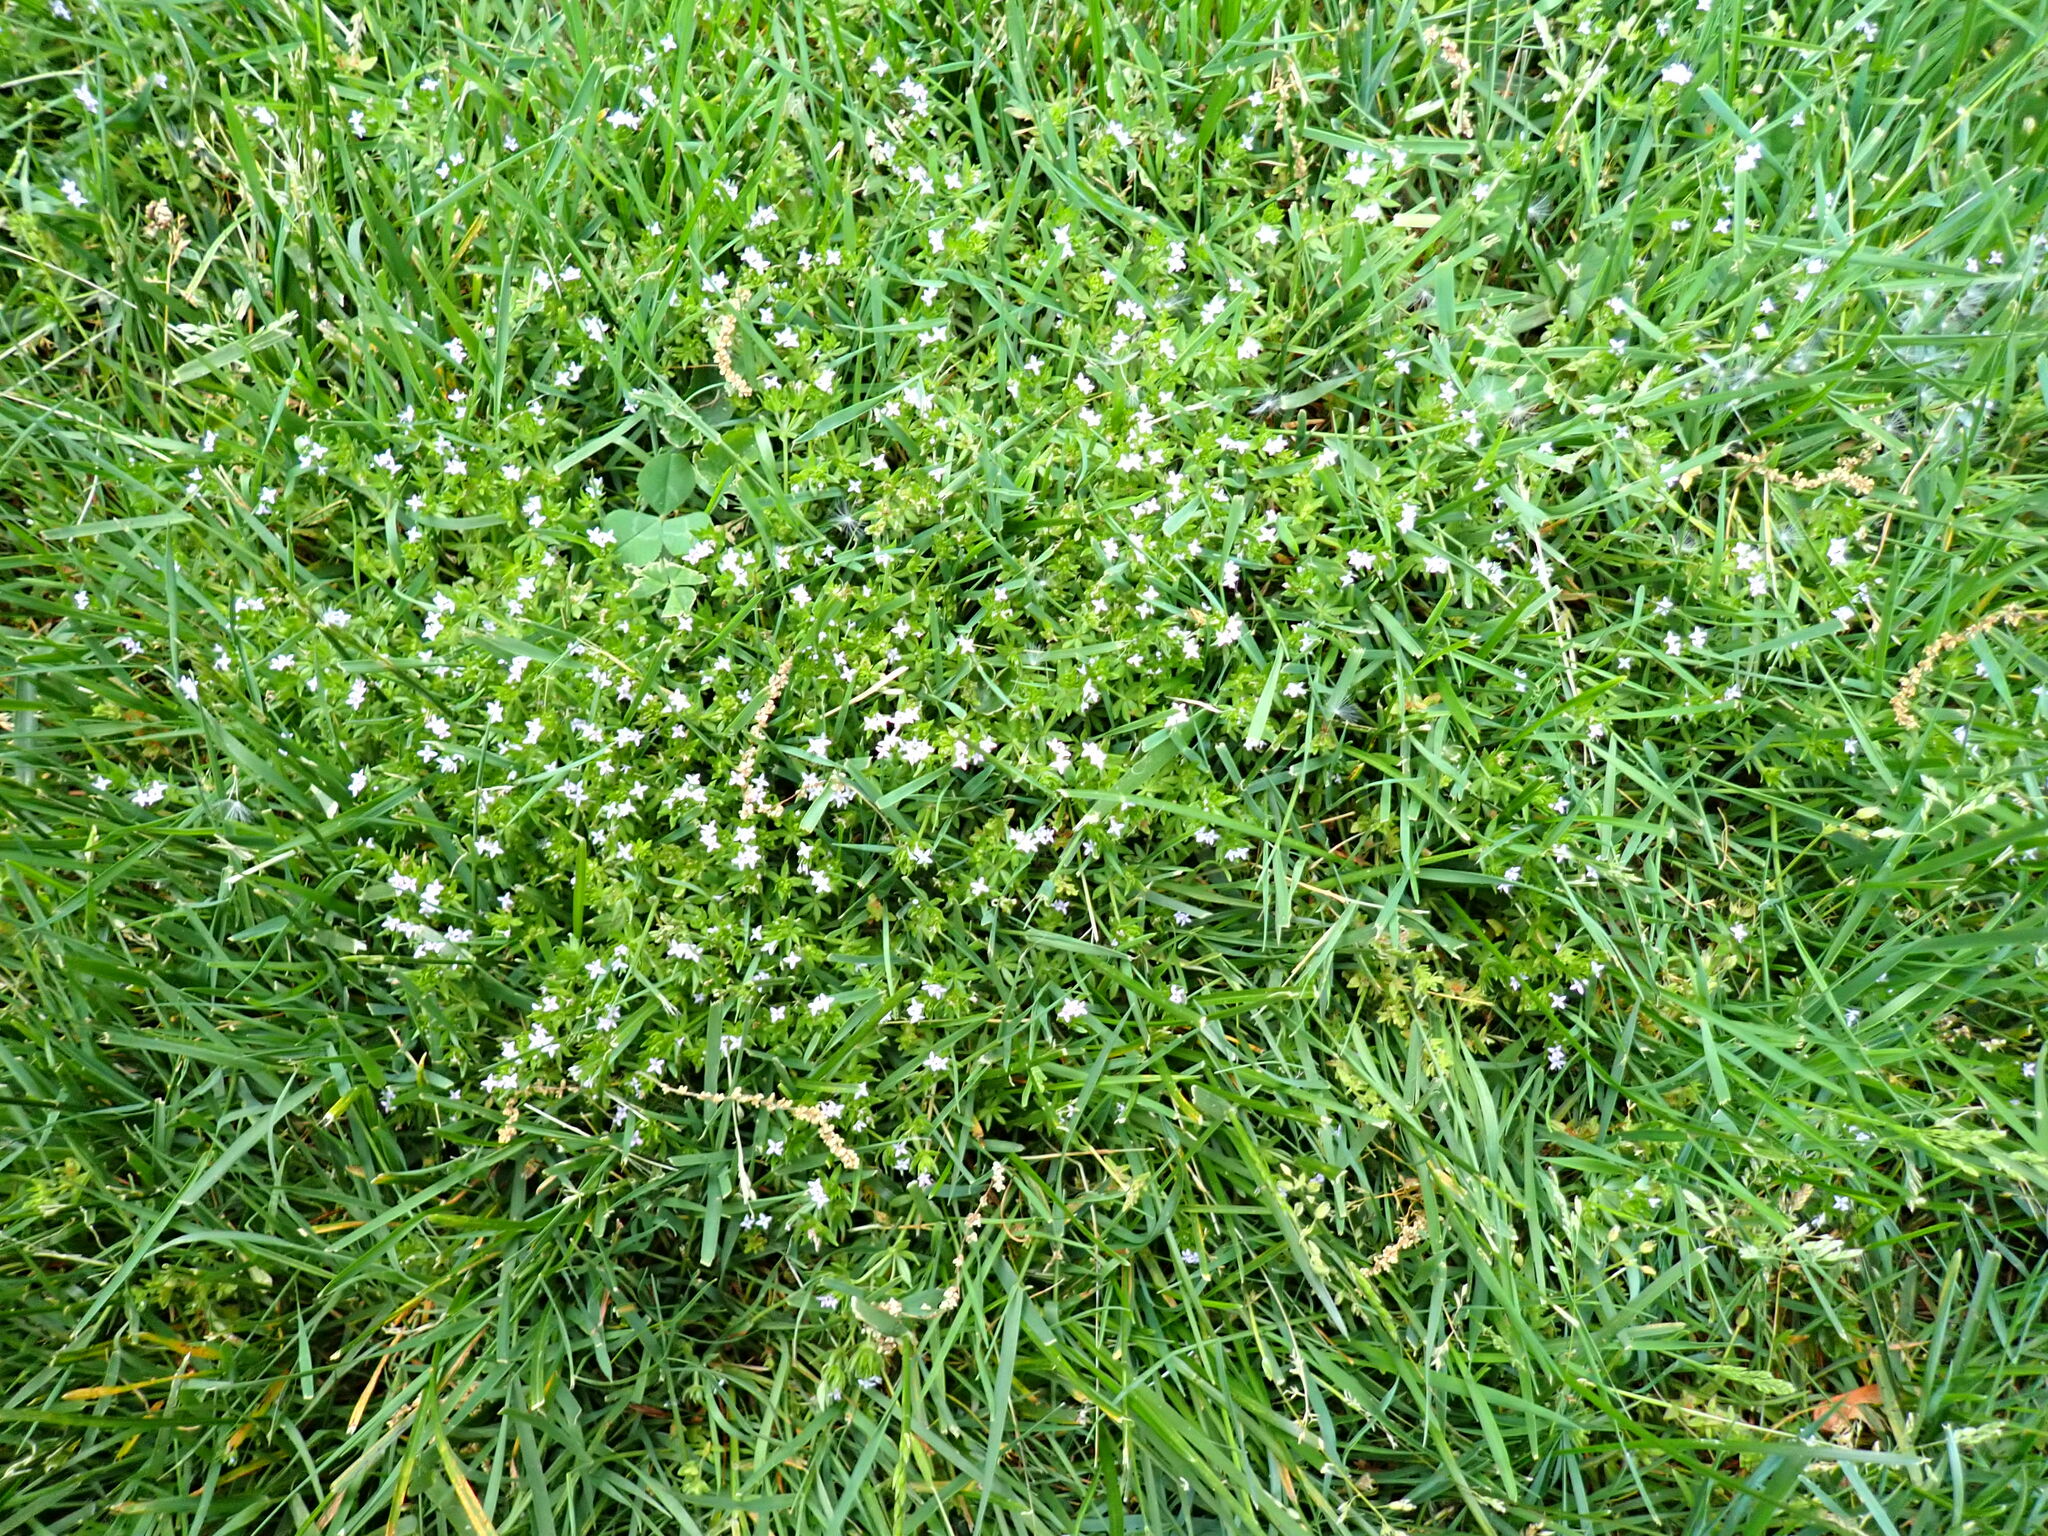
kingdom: Plantae
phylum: Tracheophyta
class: Magnoliopsida
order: Gentianales
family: Rubiaceae
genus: Sherardia
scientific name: Sherardia arvensis
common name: Field madder
